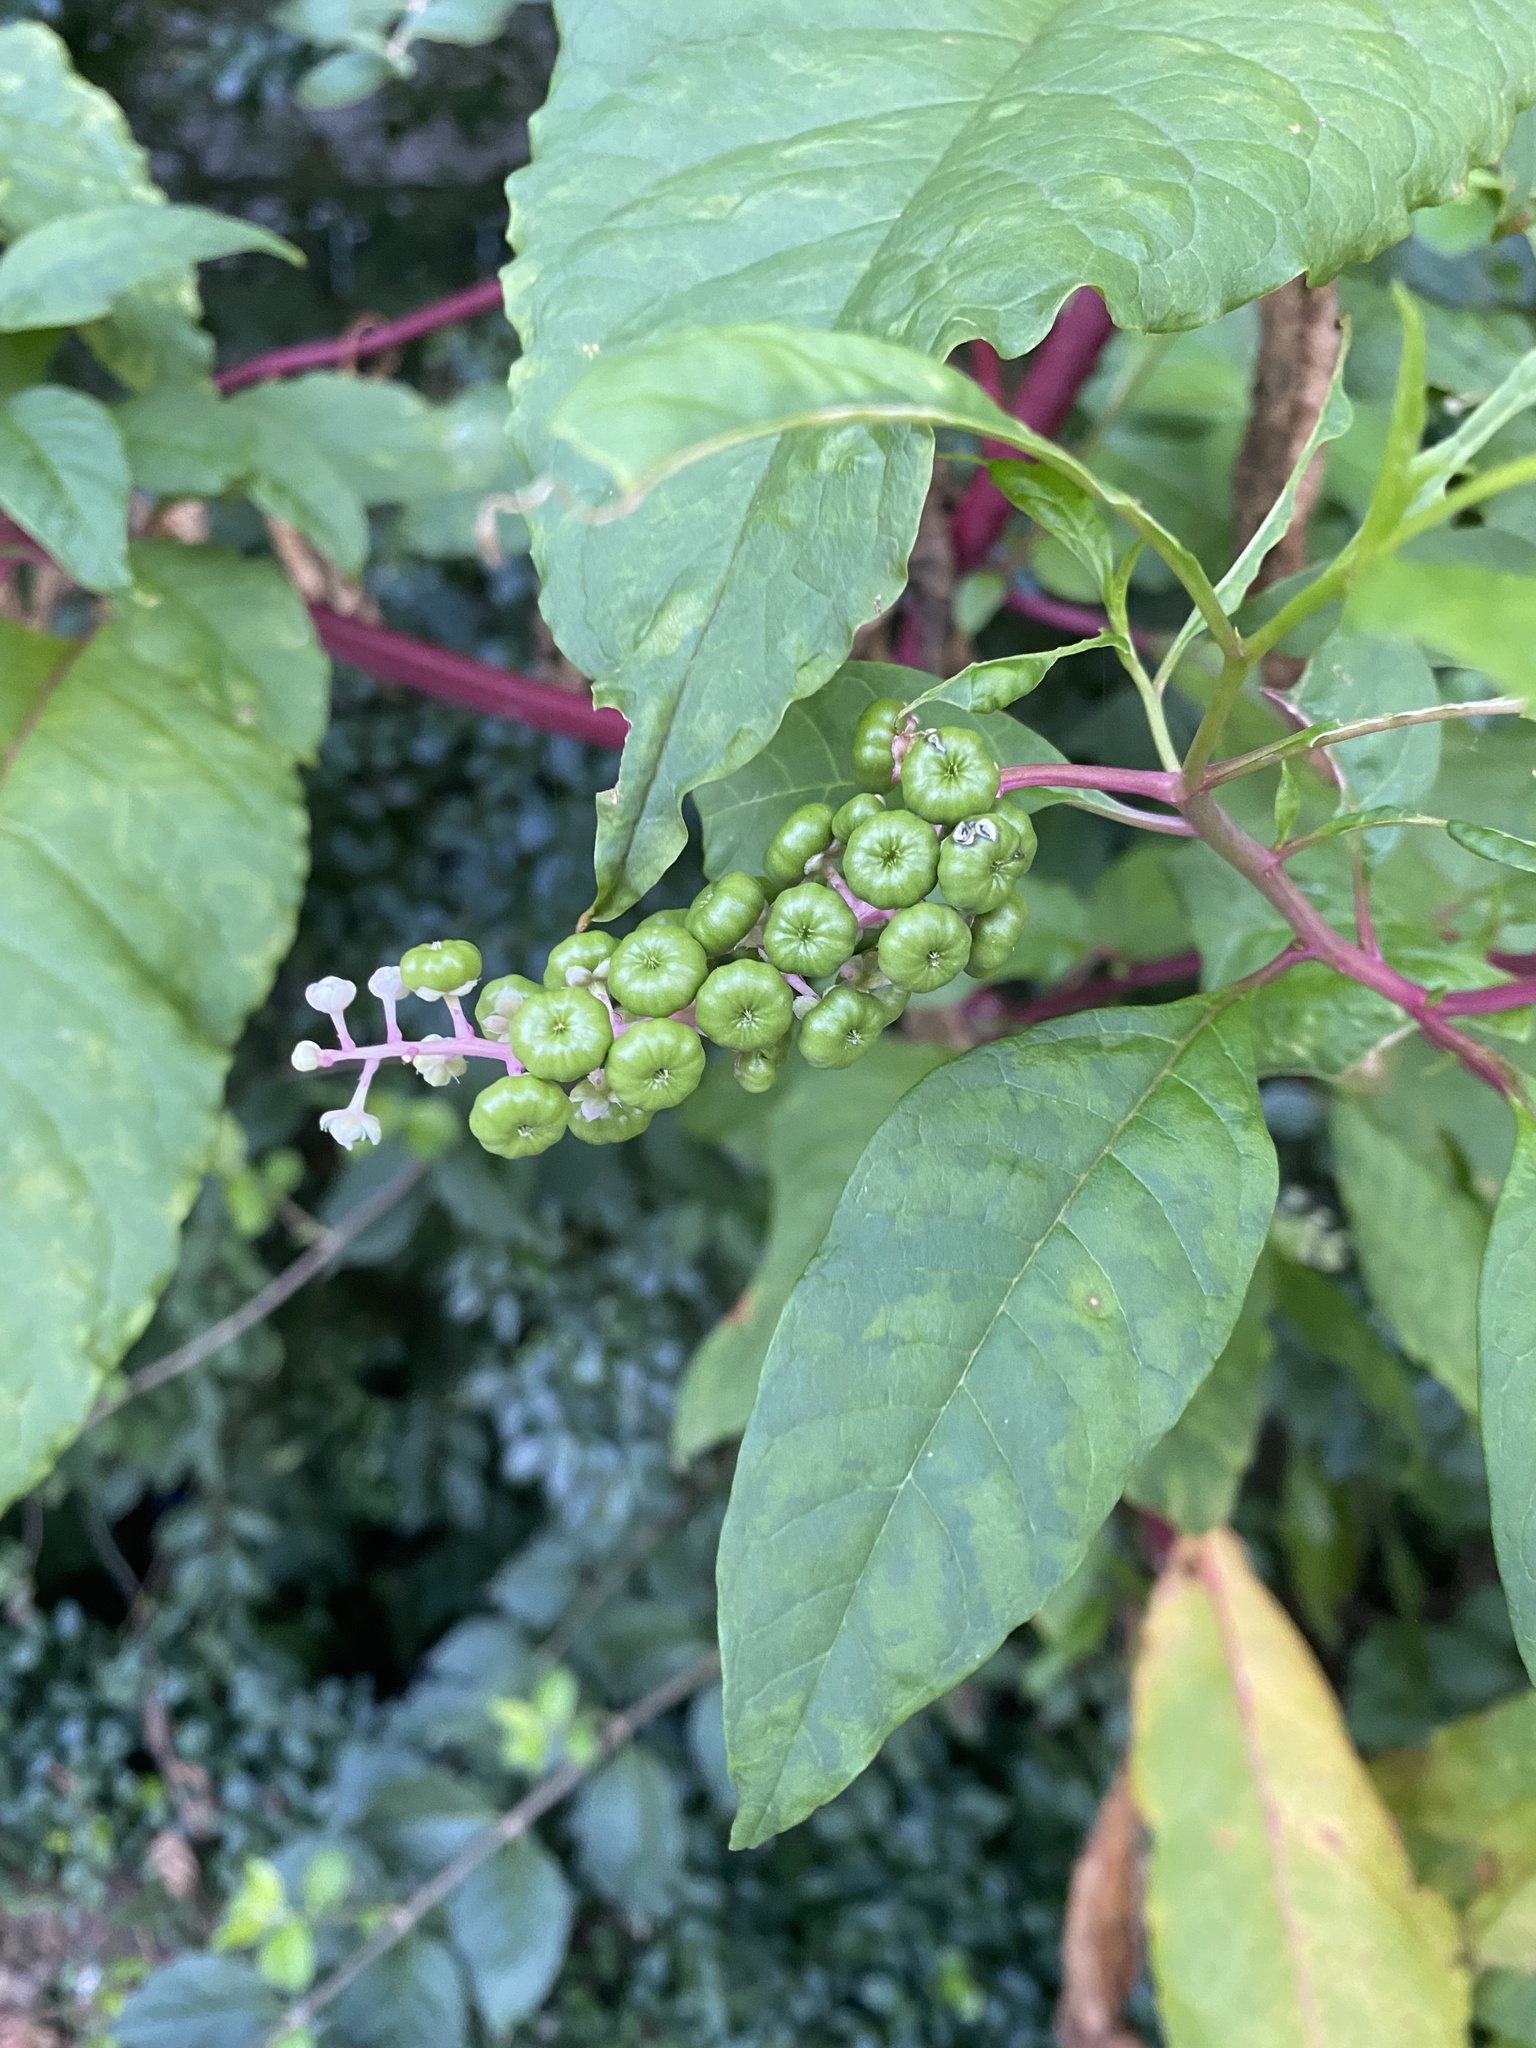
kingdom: Plantae
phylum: Tracheophyta
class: Magnoliopsida
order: Caryophyllales
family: Phytolaccaceae
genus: Phytolacca
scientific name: Phytolacca americana
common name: American pokeweed
